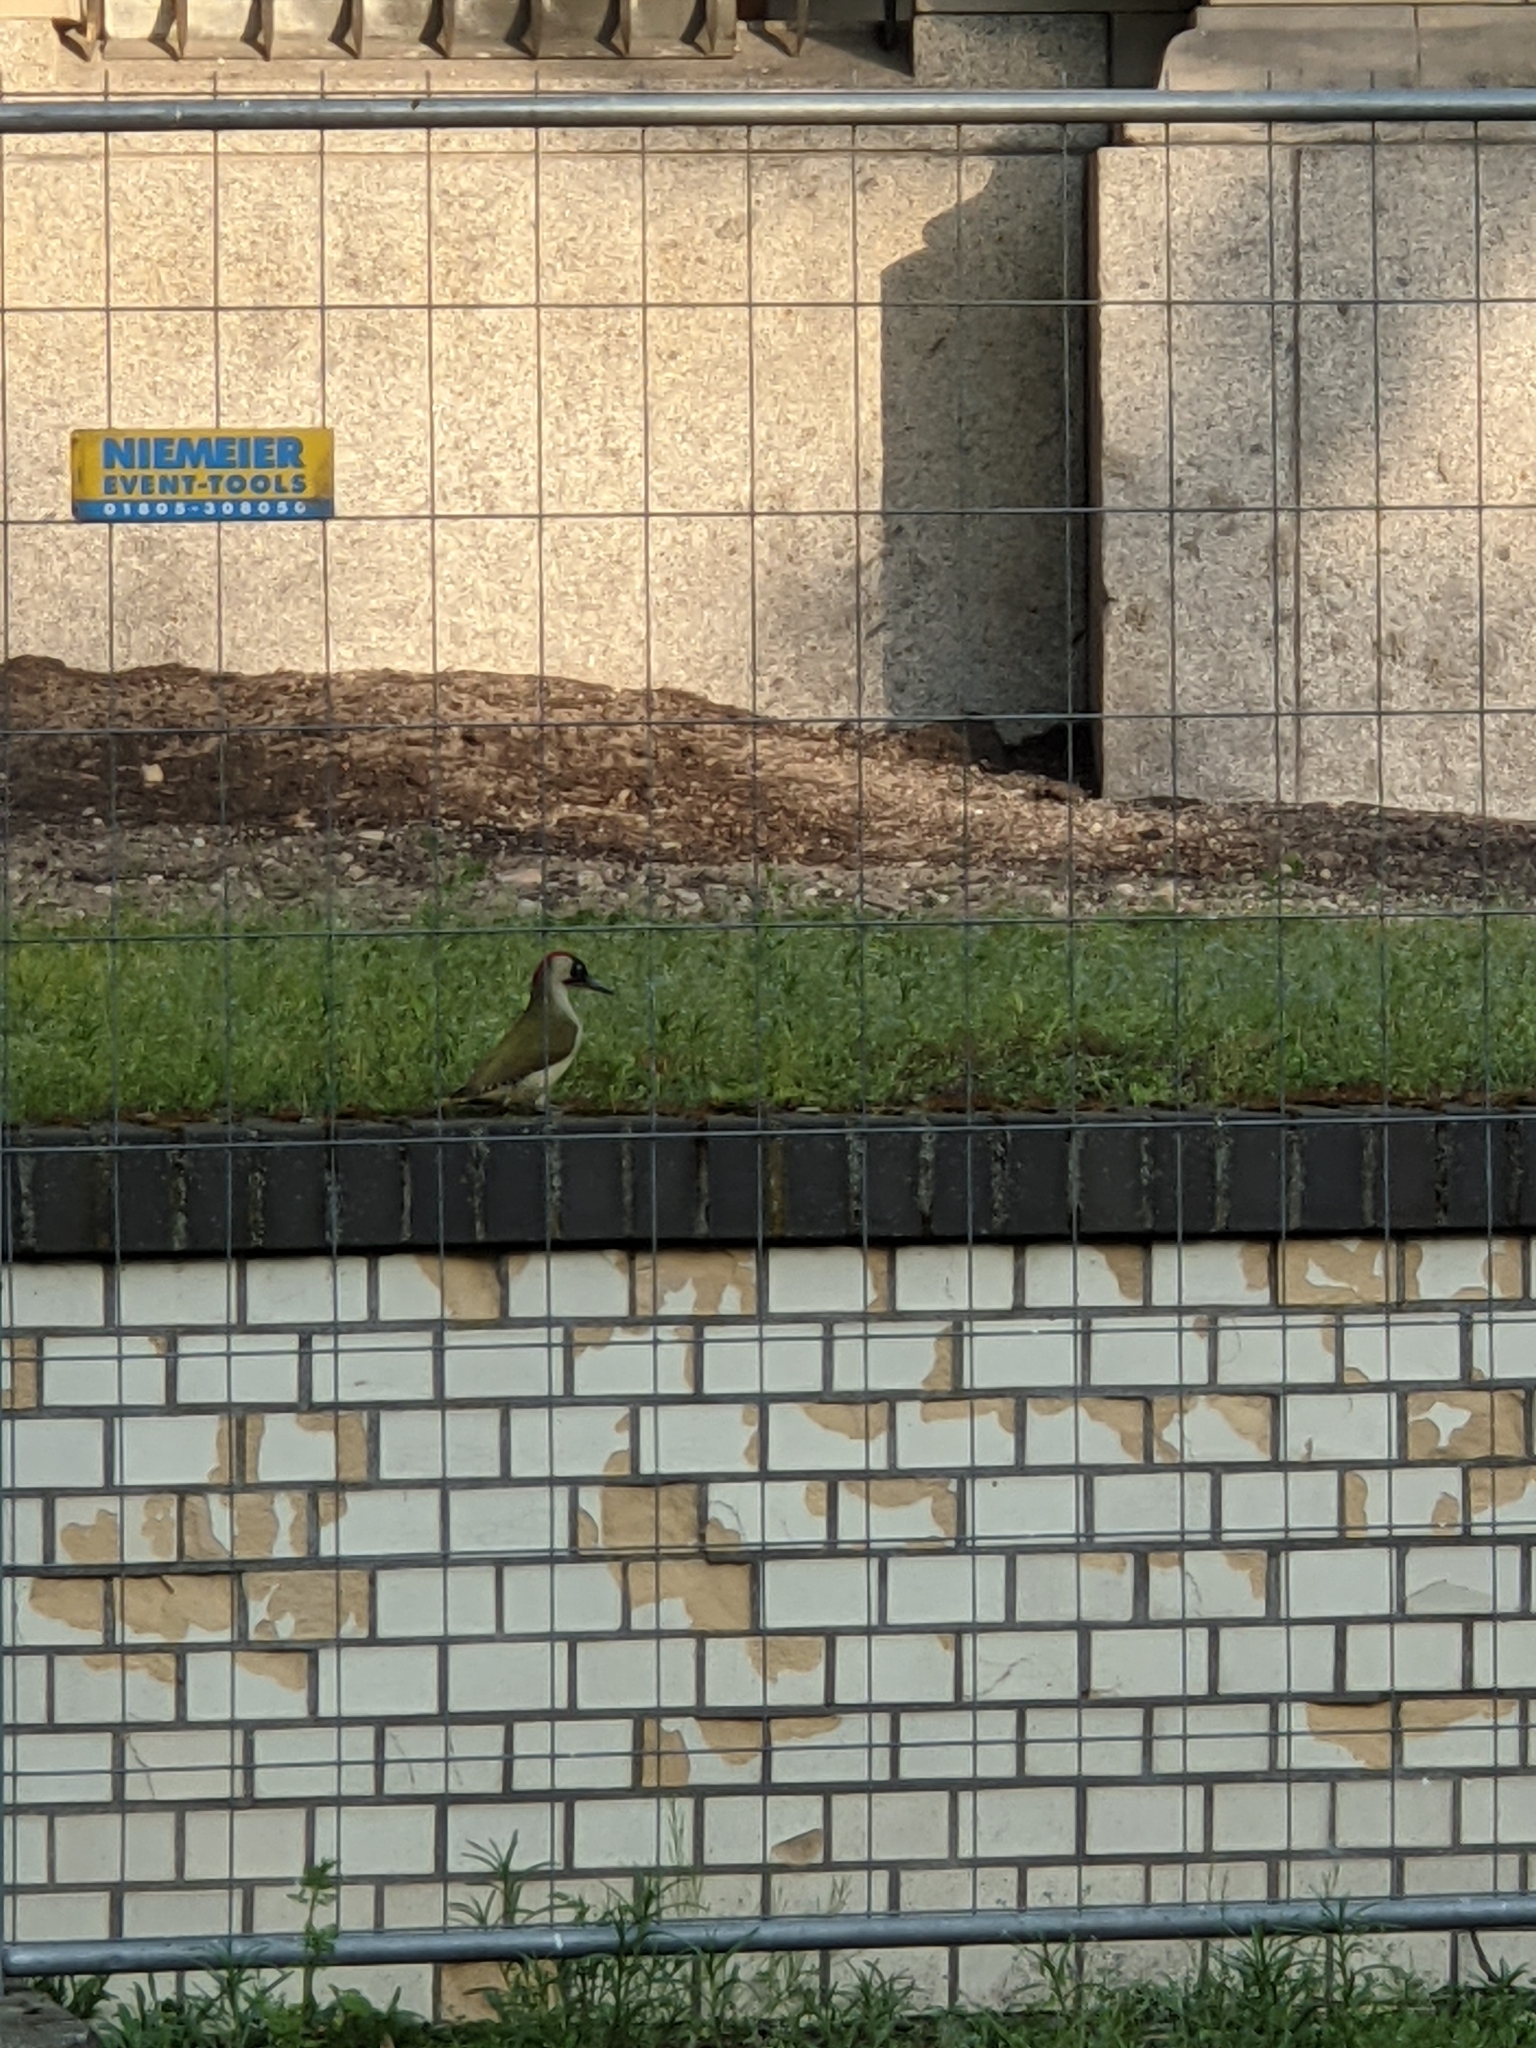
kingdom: Animalia
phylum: Chordata
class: Aves
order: Piciformes
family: Picidae
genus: Picus
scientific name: Picus viridis
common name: European green woodpecker
